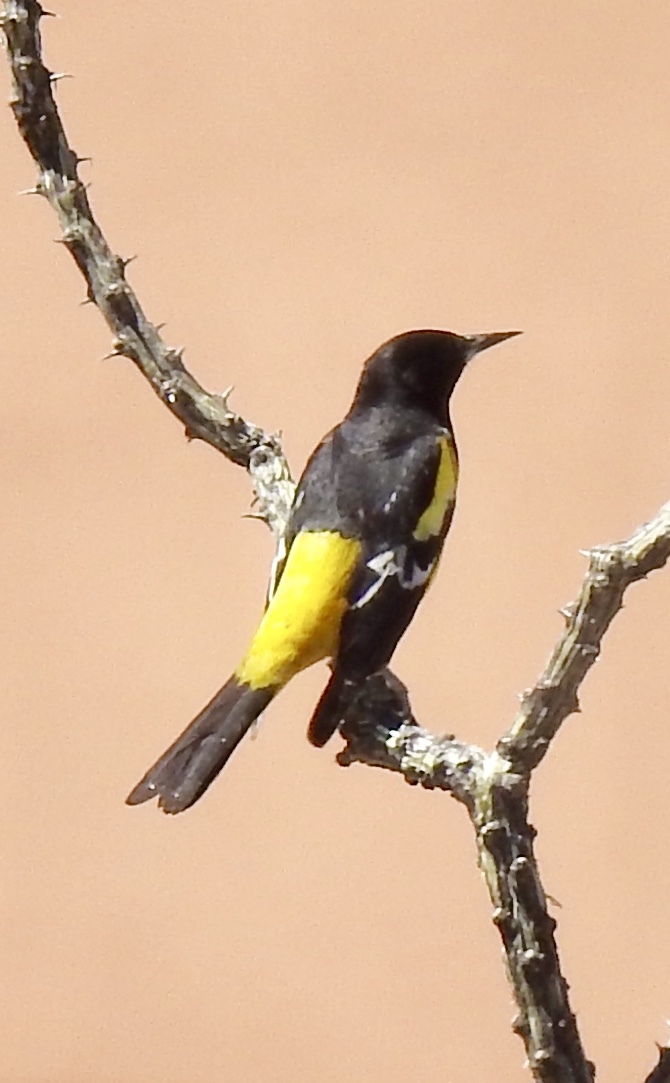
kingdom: Animalia
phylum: Chordata
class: Aves
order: Passeriformes
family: Icteridae
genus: Icterus
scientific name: Icterus parisorum
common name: Scott's oriole
